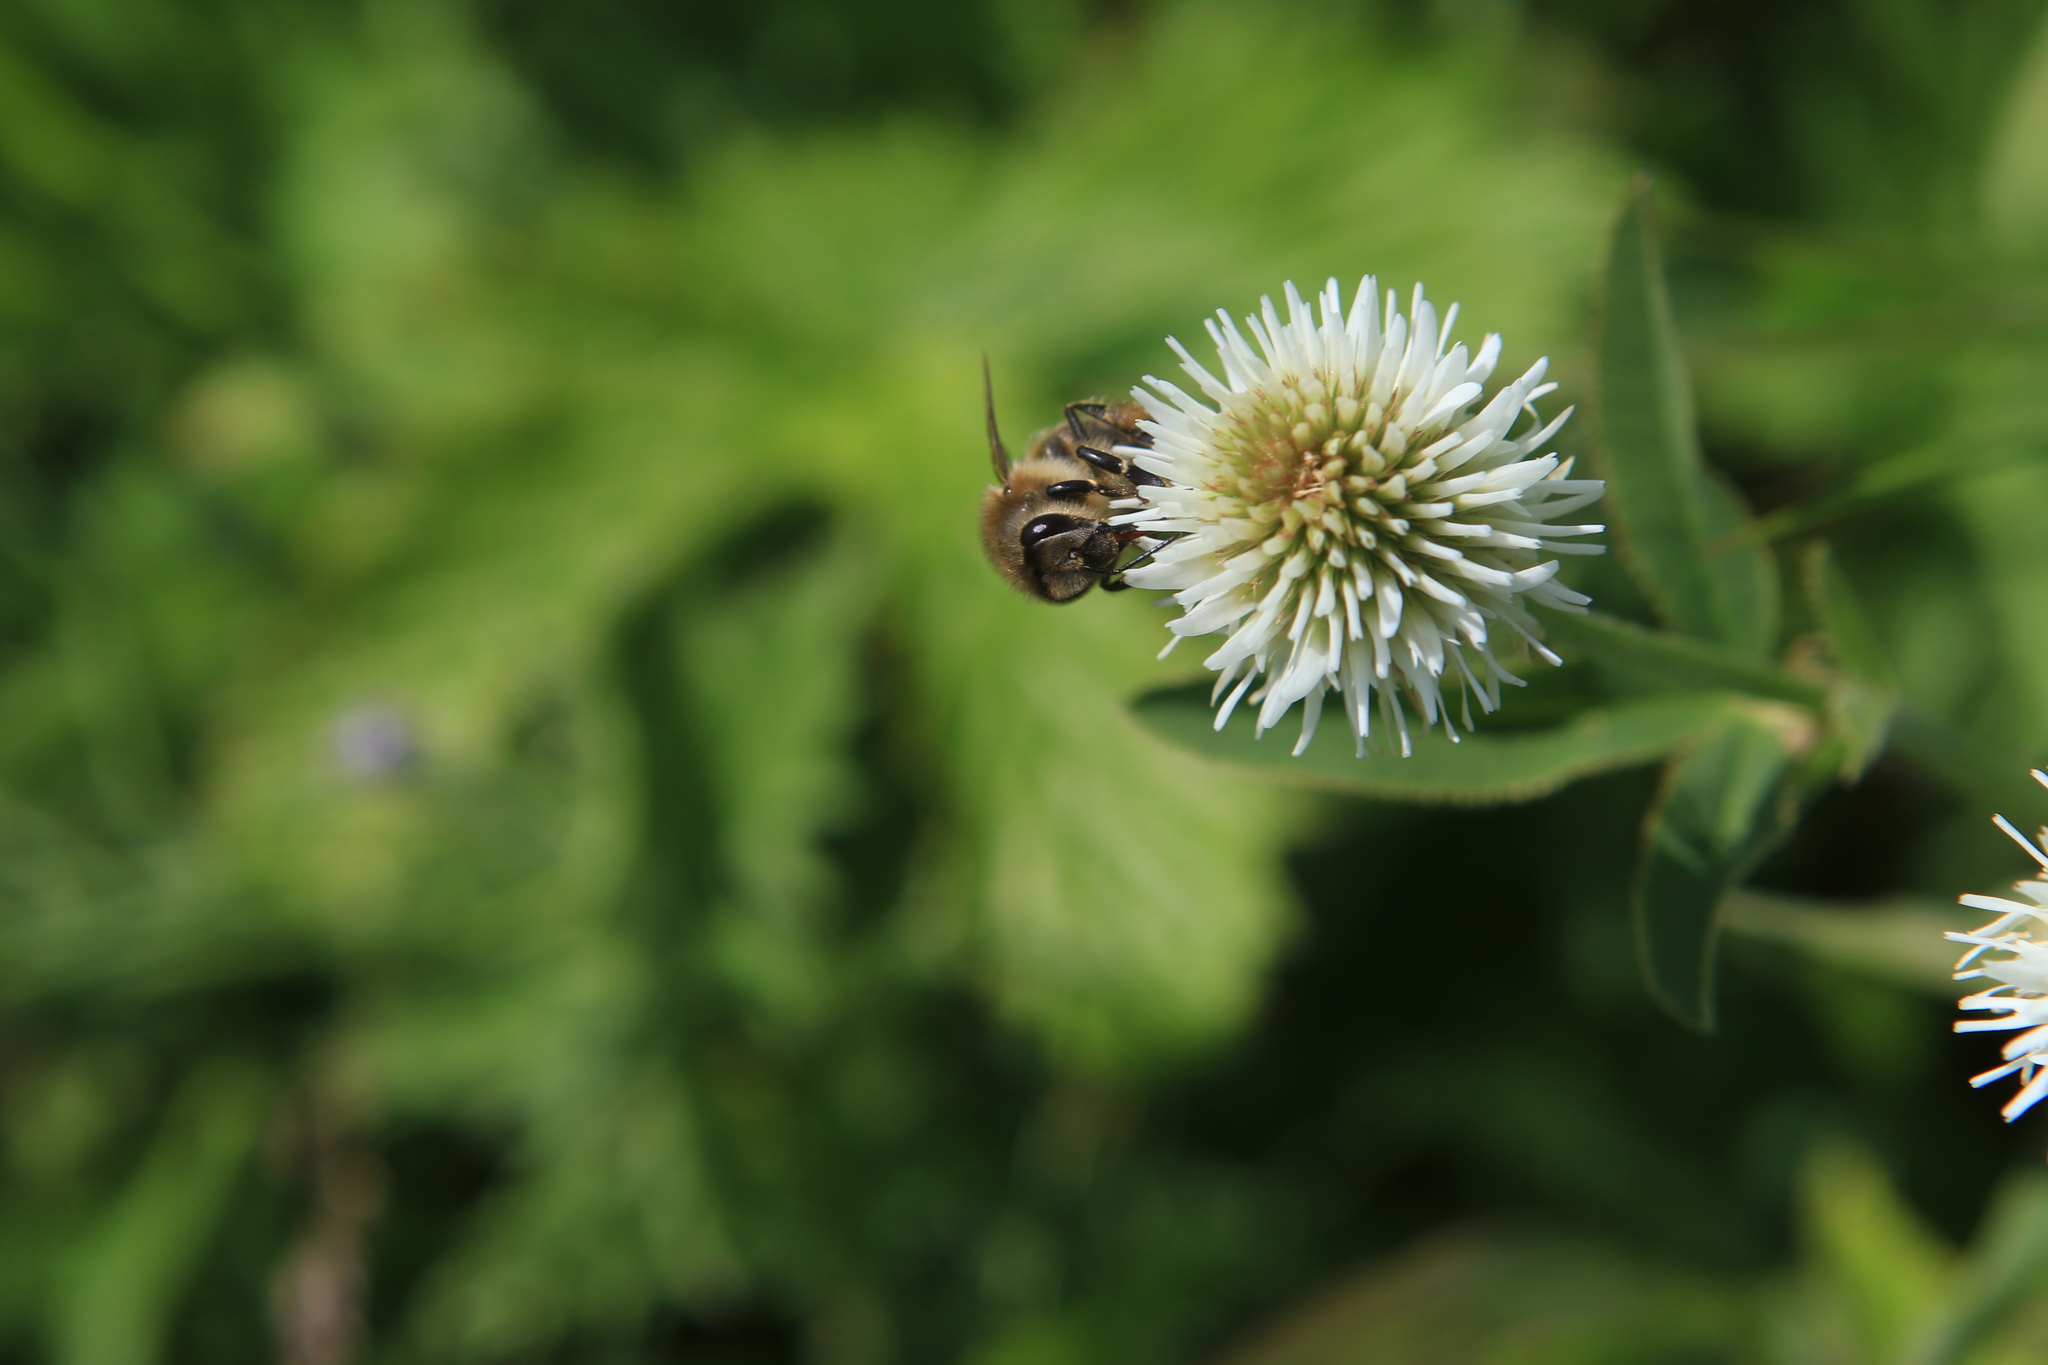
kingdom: Animalia
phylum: Arthropoda
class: Insecta
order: Hymenoptera
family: Apidae
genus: Apis
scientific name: Apis mellifera
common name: Honey bee
